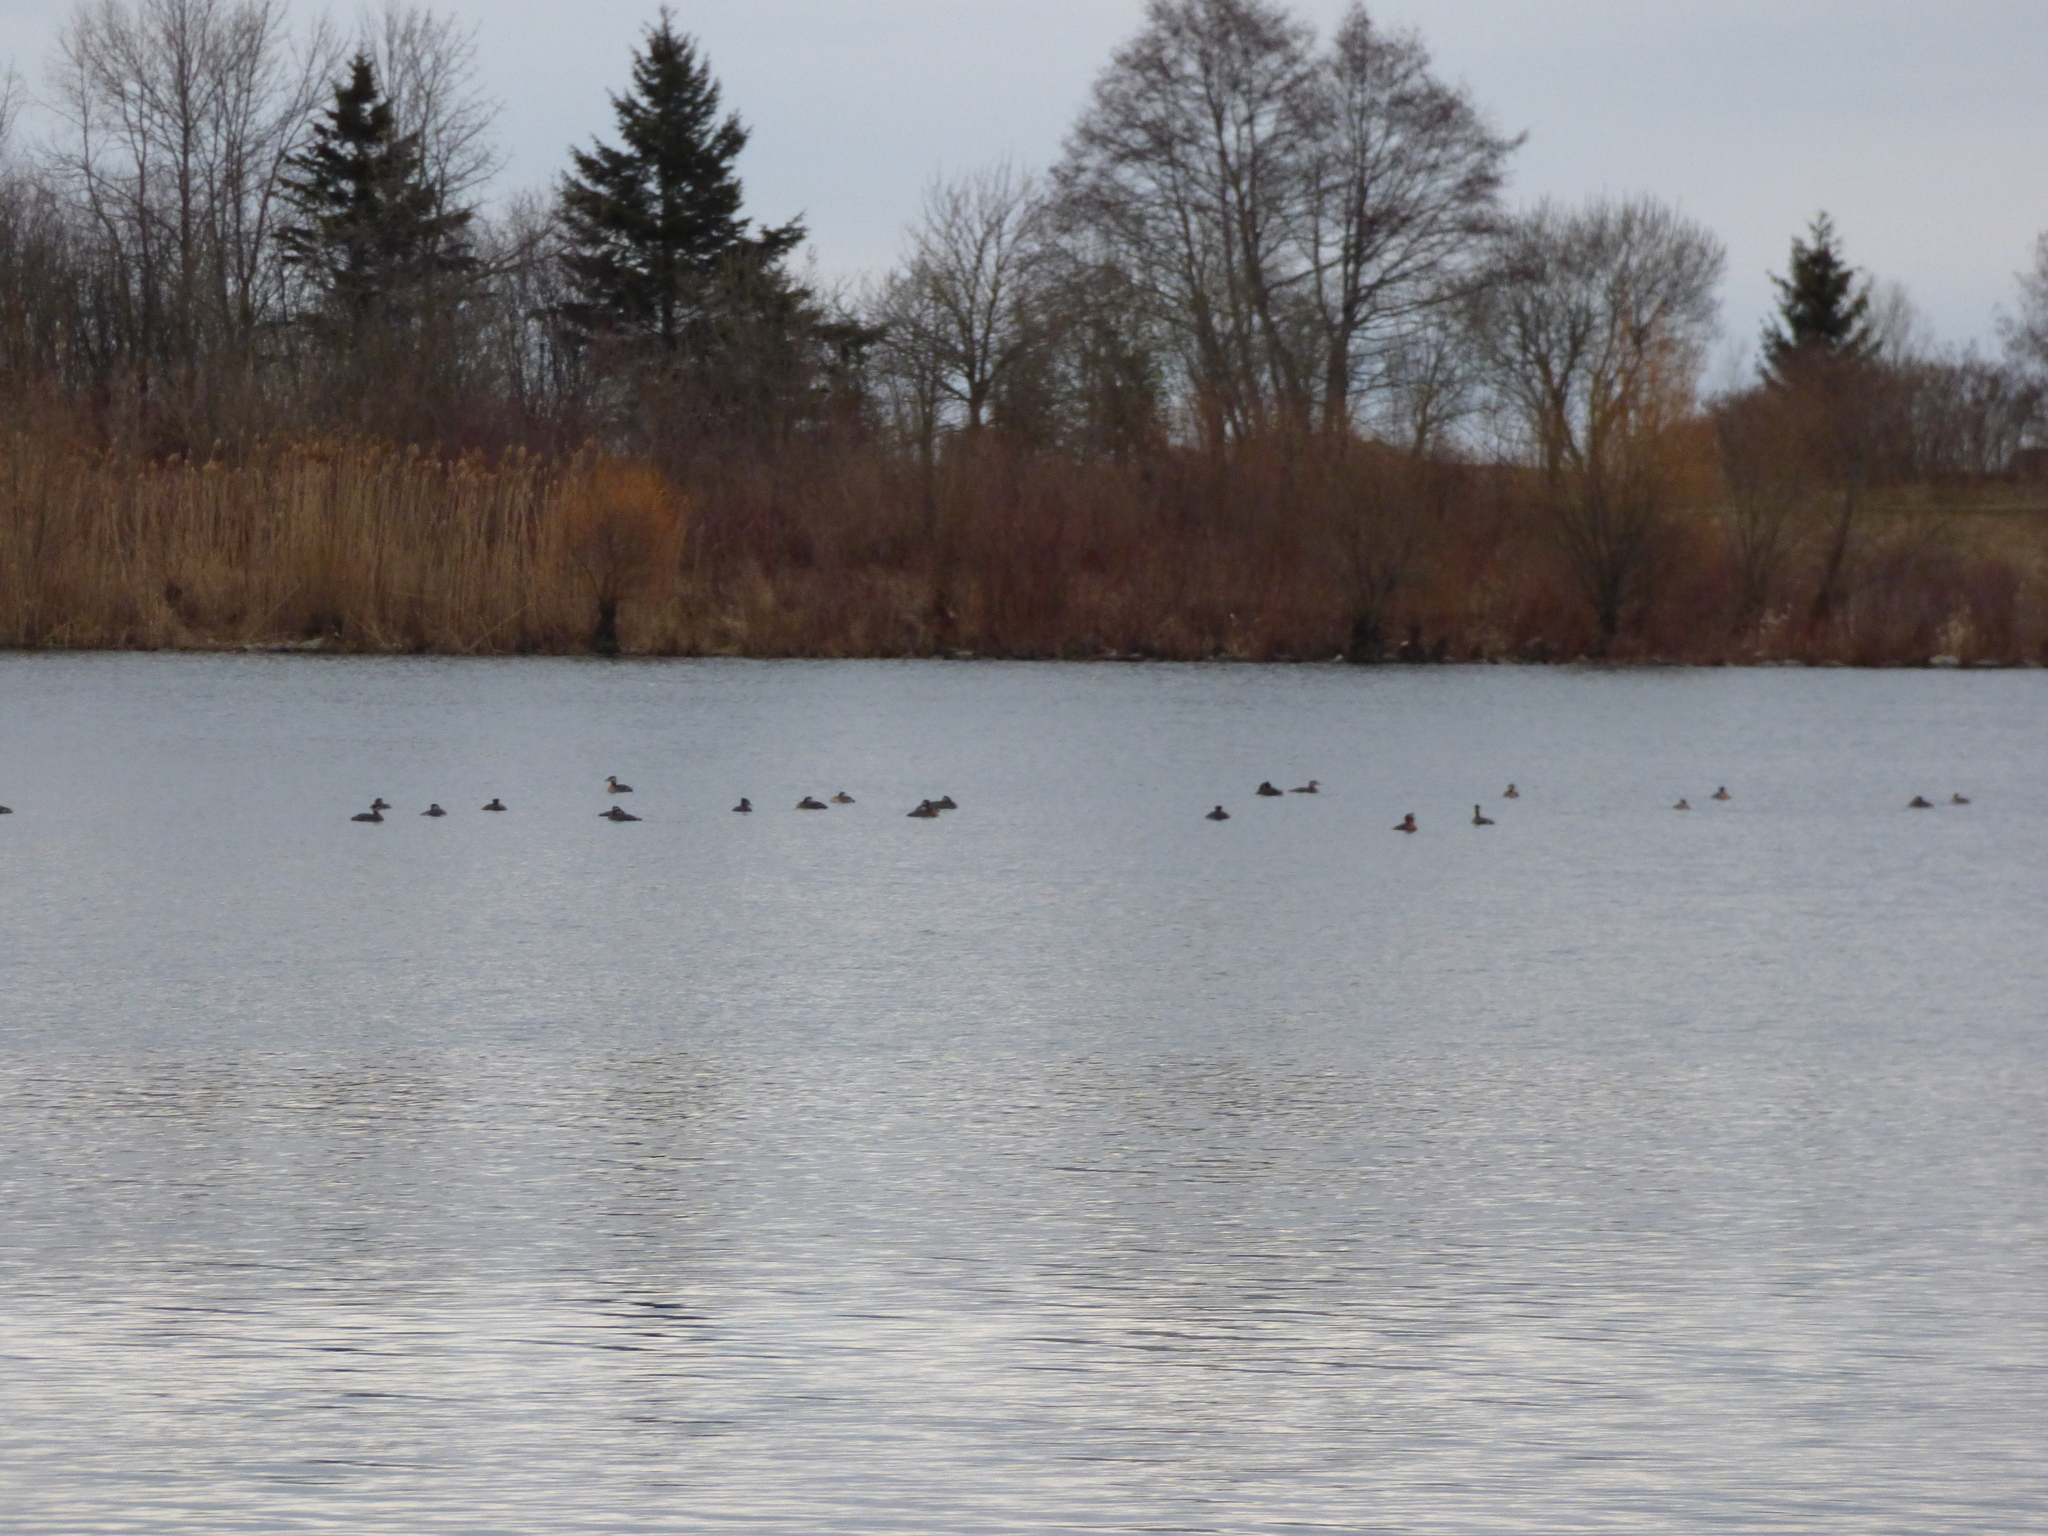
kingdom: Animalia
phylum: Chordata
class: Aves
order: Podicipediformes
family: Podicipedidae
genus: Podiceps
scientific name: Podiceps grisegena
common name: Red-necked grebe
